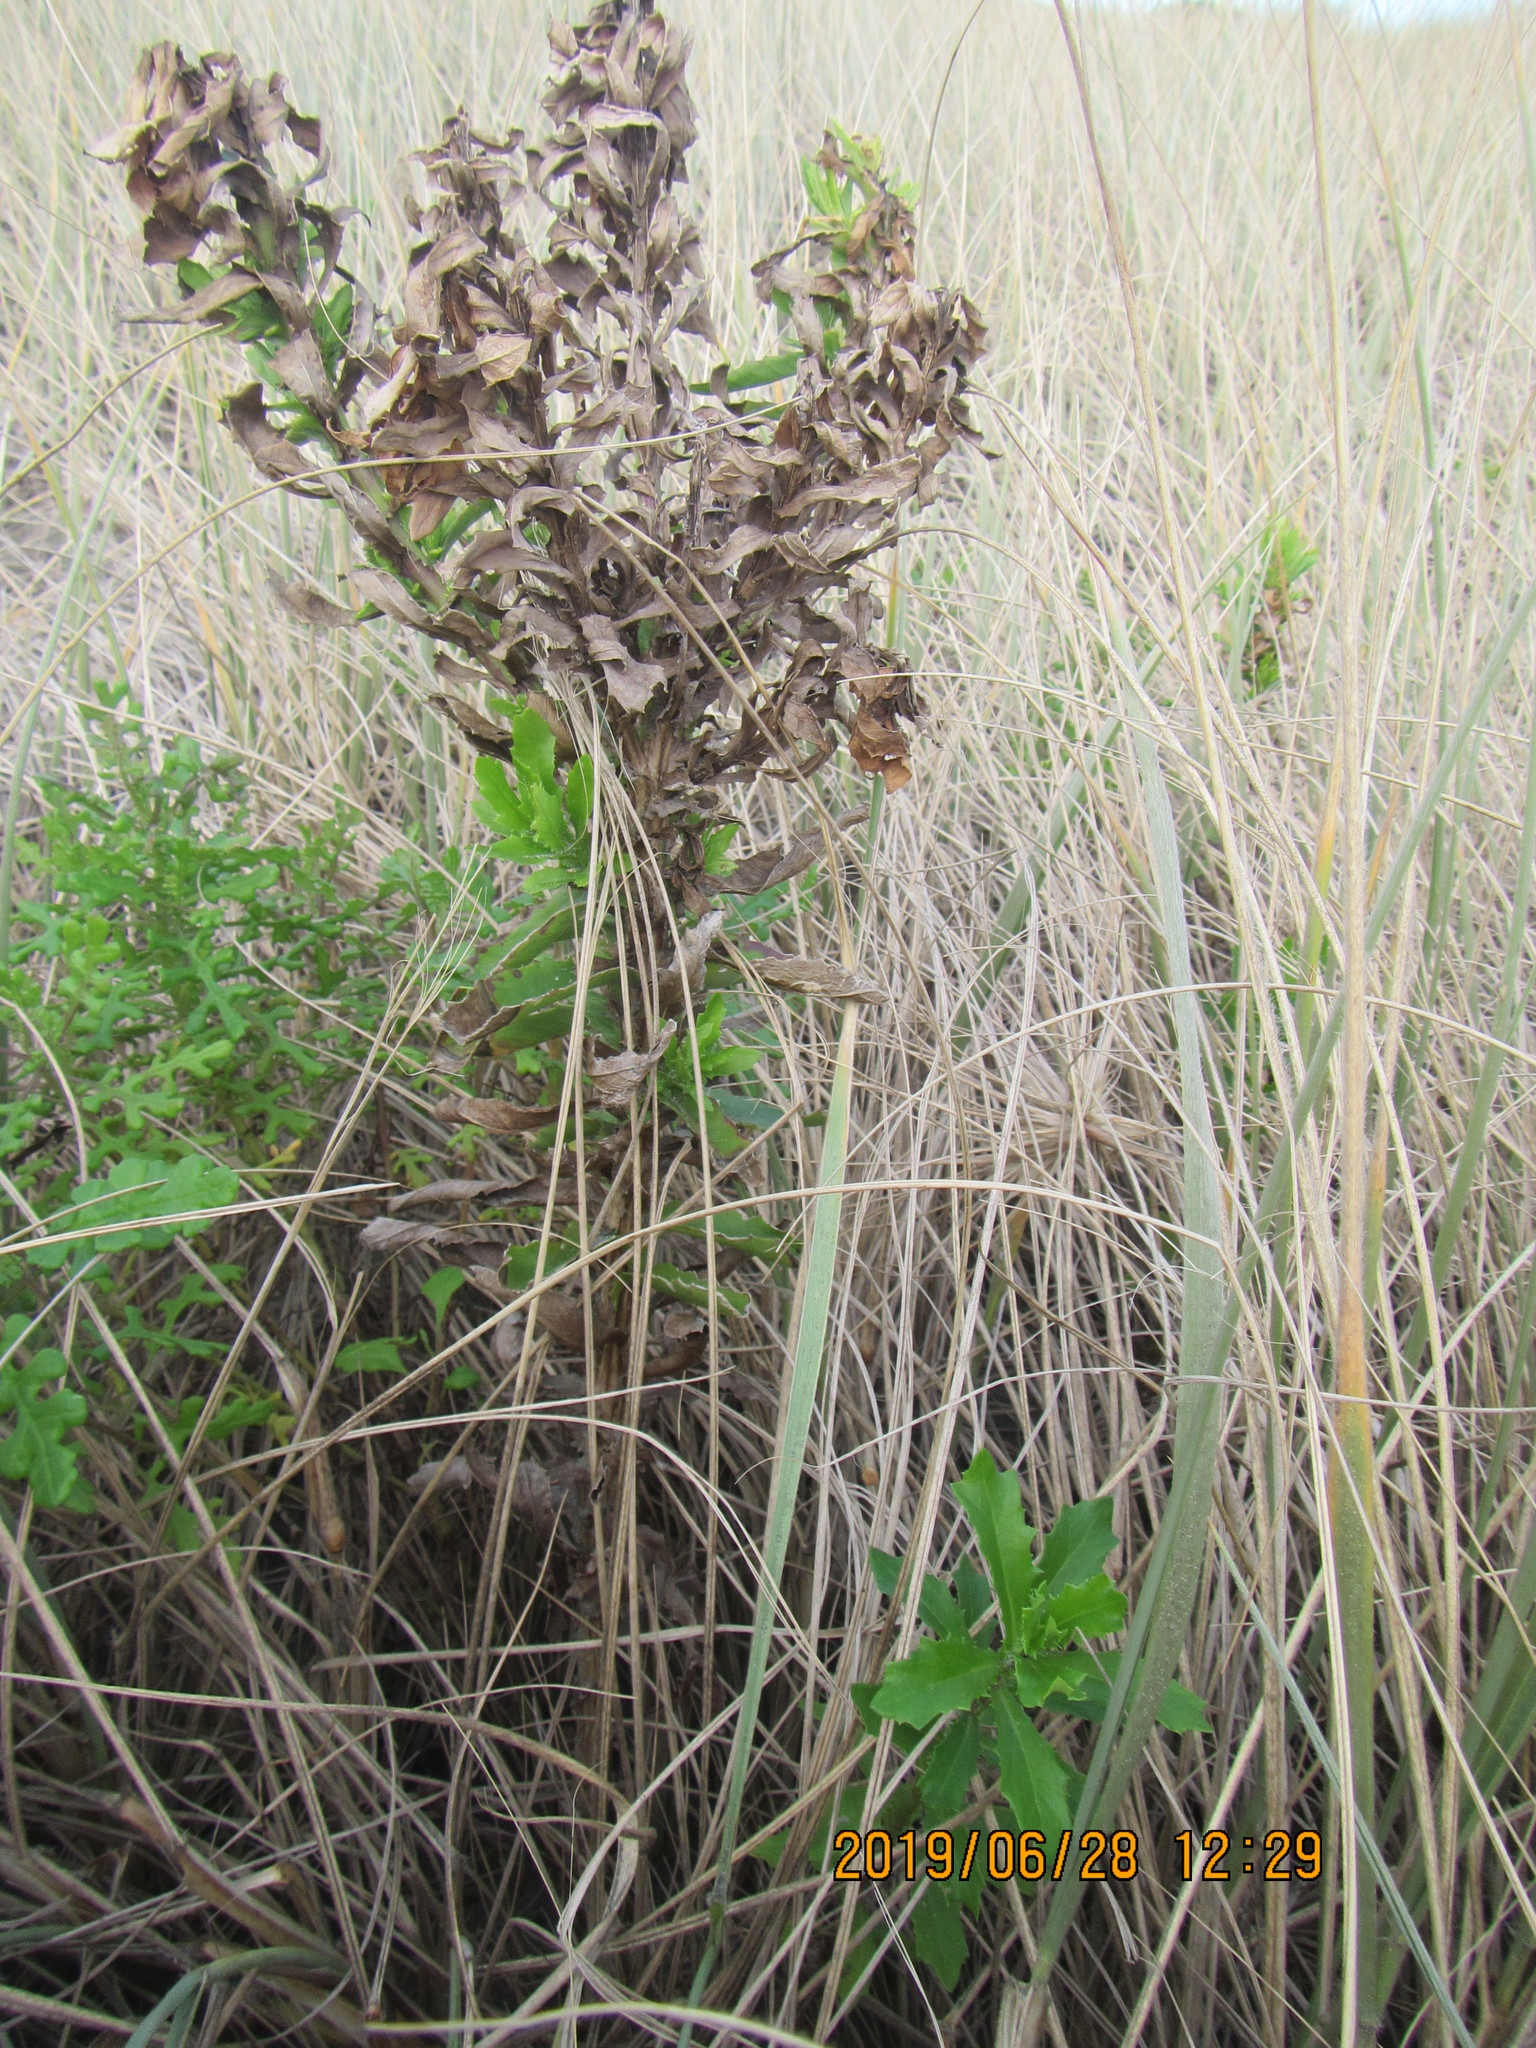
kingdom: Plantae
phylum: Tracheophyta
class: Magnoliopsida
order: Asterales
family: Asteraceae
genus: Senecio
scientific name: Senecio elegans
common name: Purple groundsel
